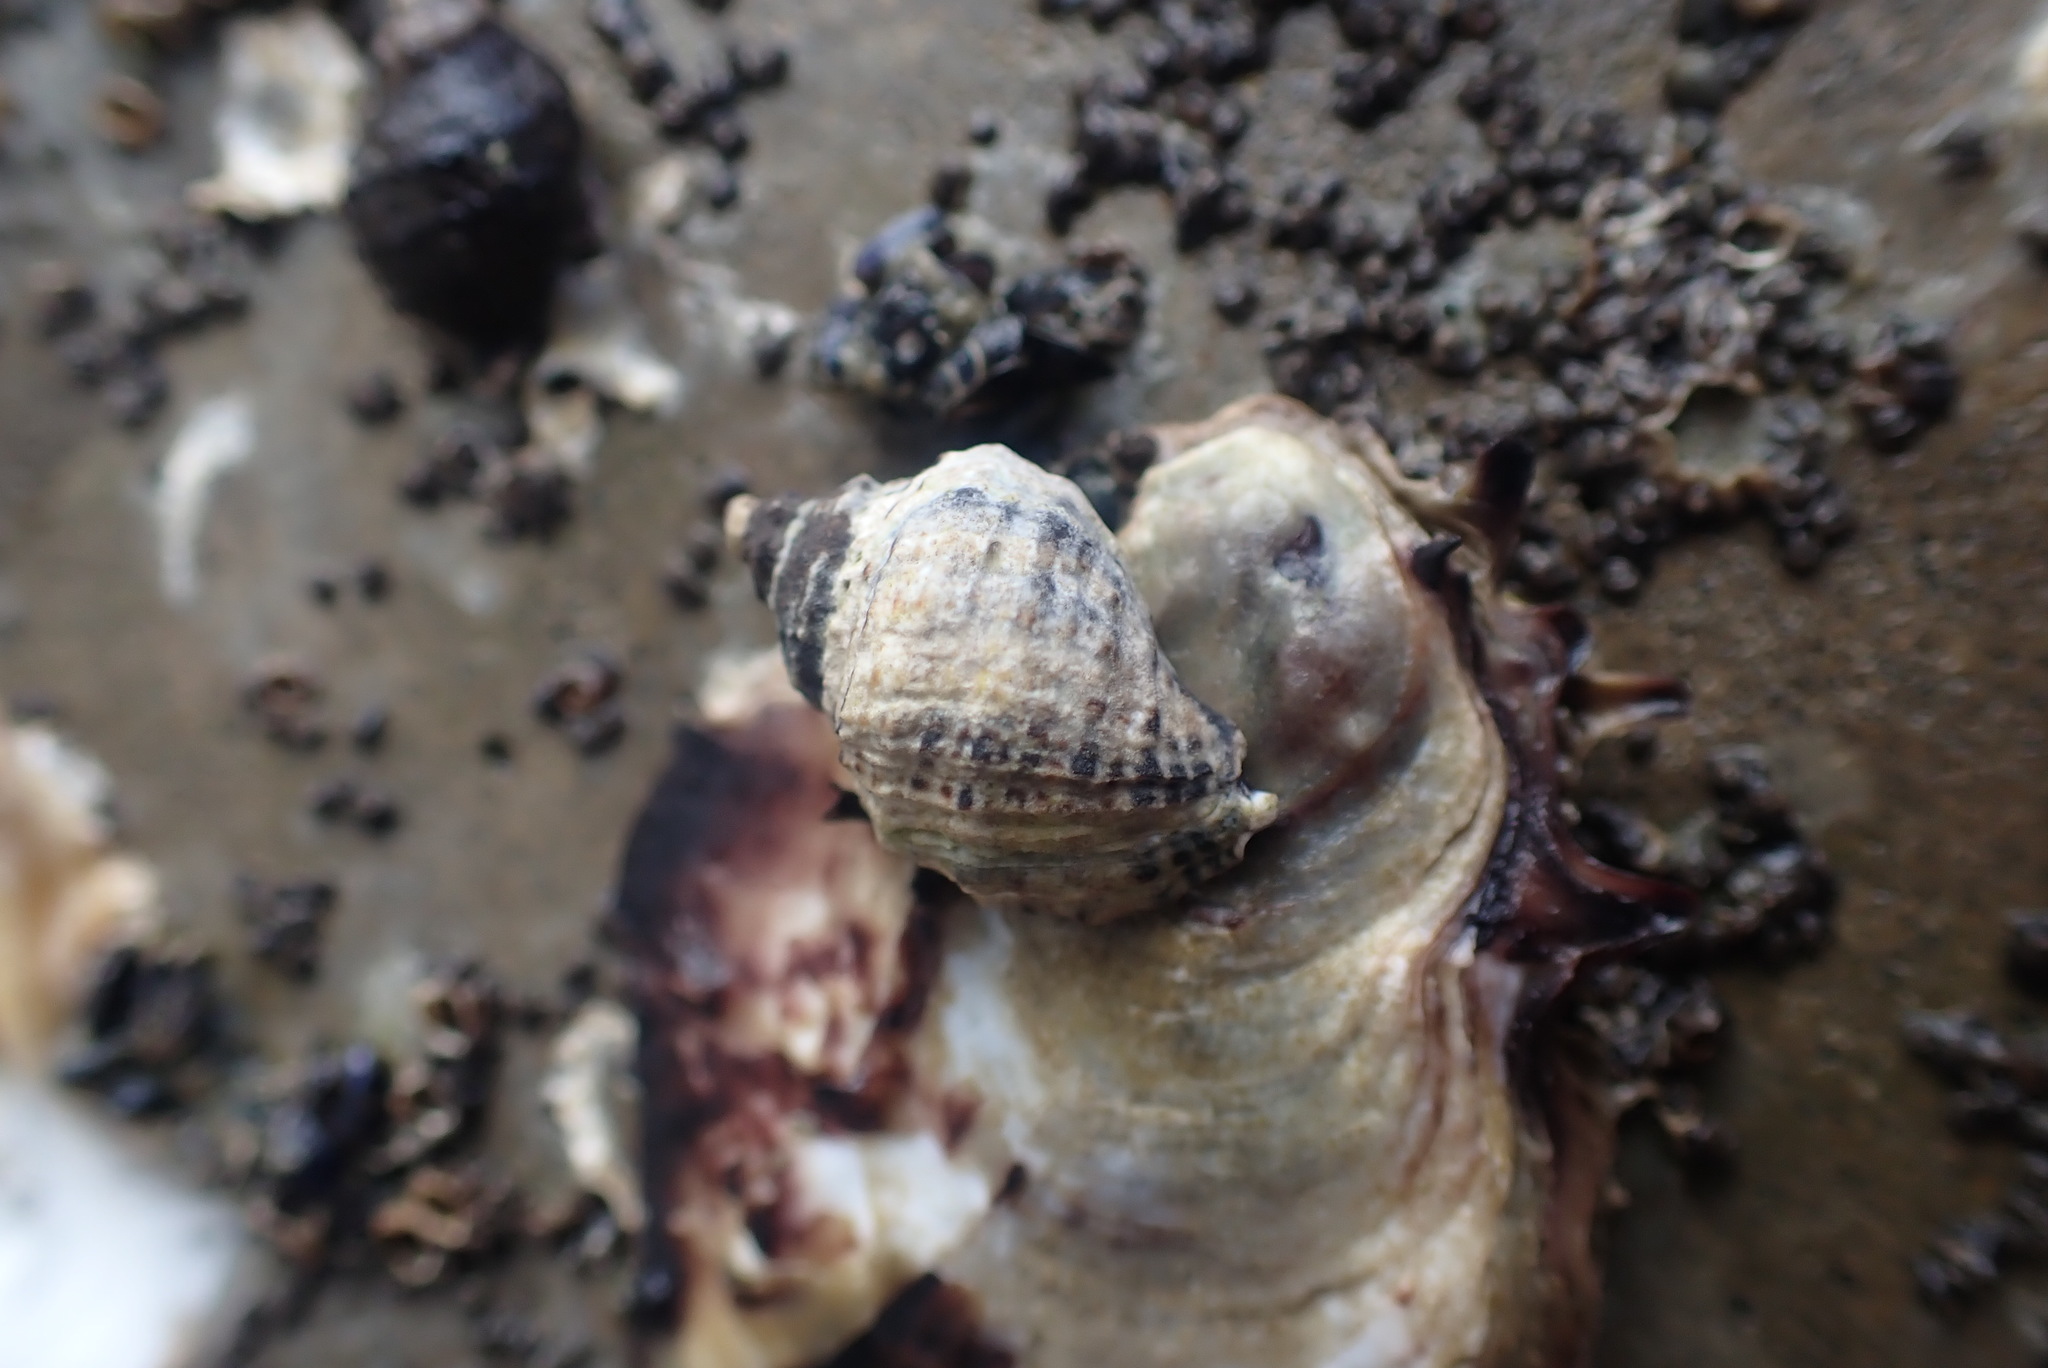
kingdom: Animalia
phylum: Mollusca
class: Gastropoda
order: Neogastropoda
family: Muricidae
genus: Haustrum
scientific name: Haustrum albomarginatum
